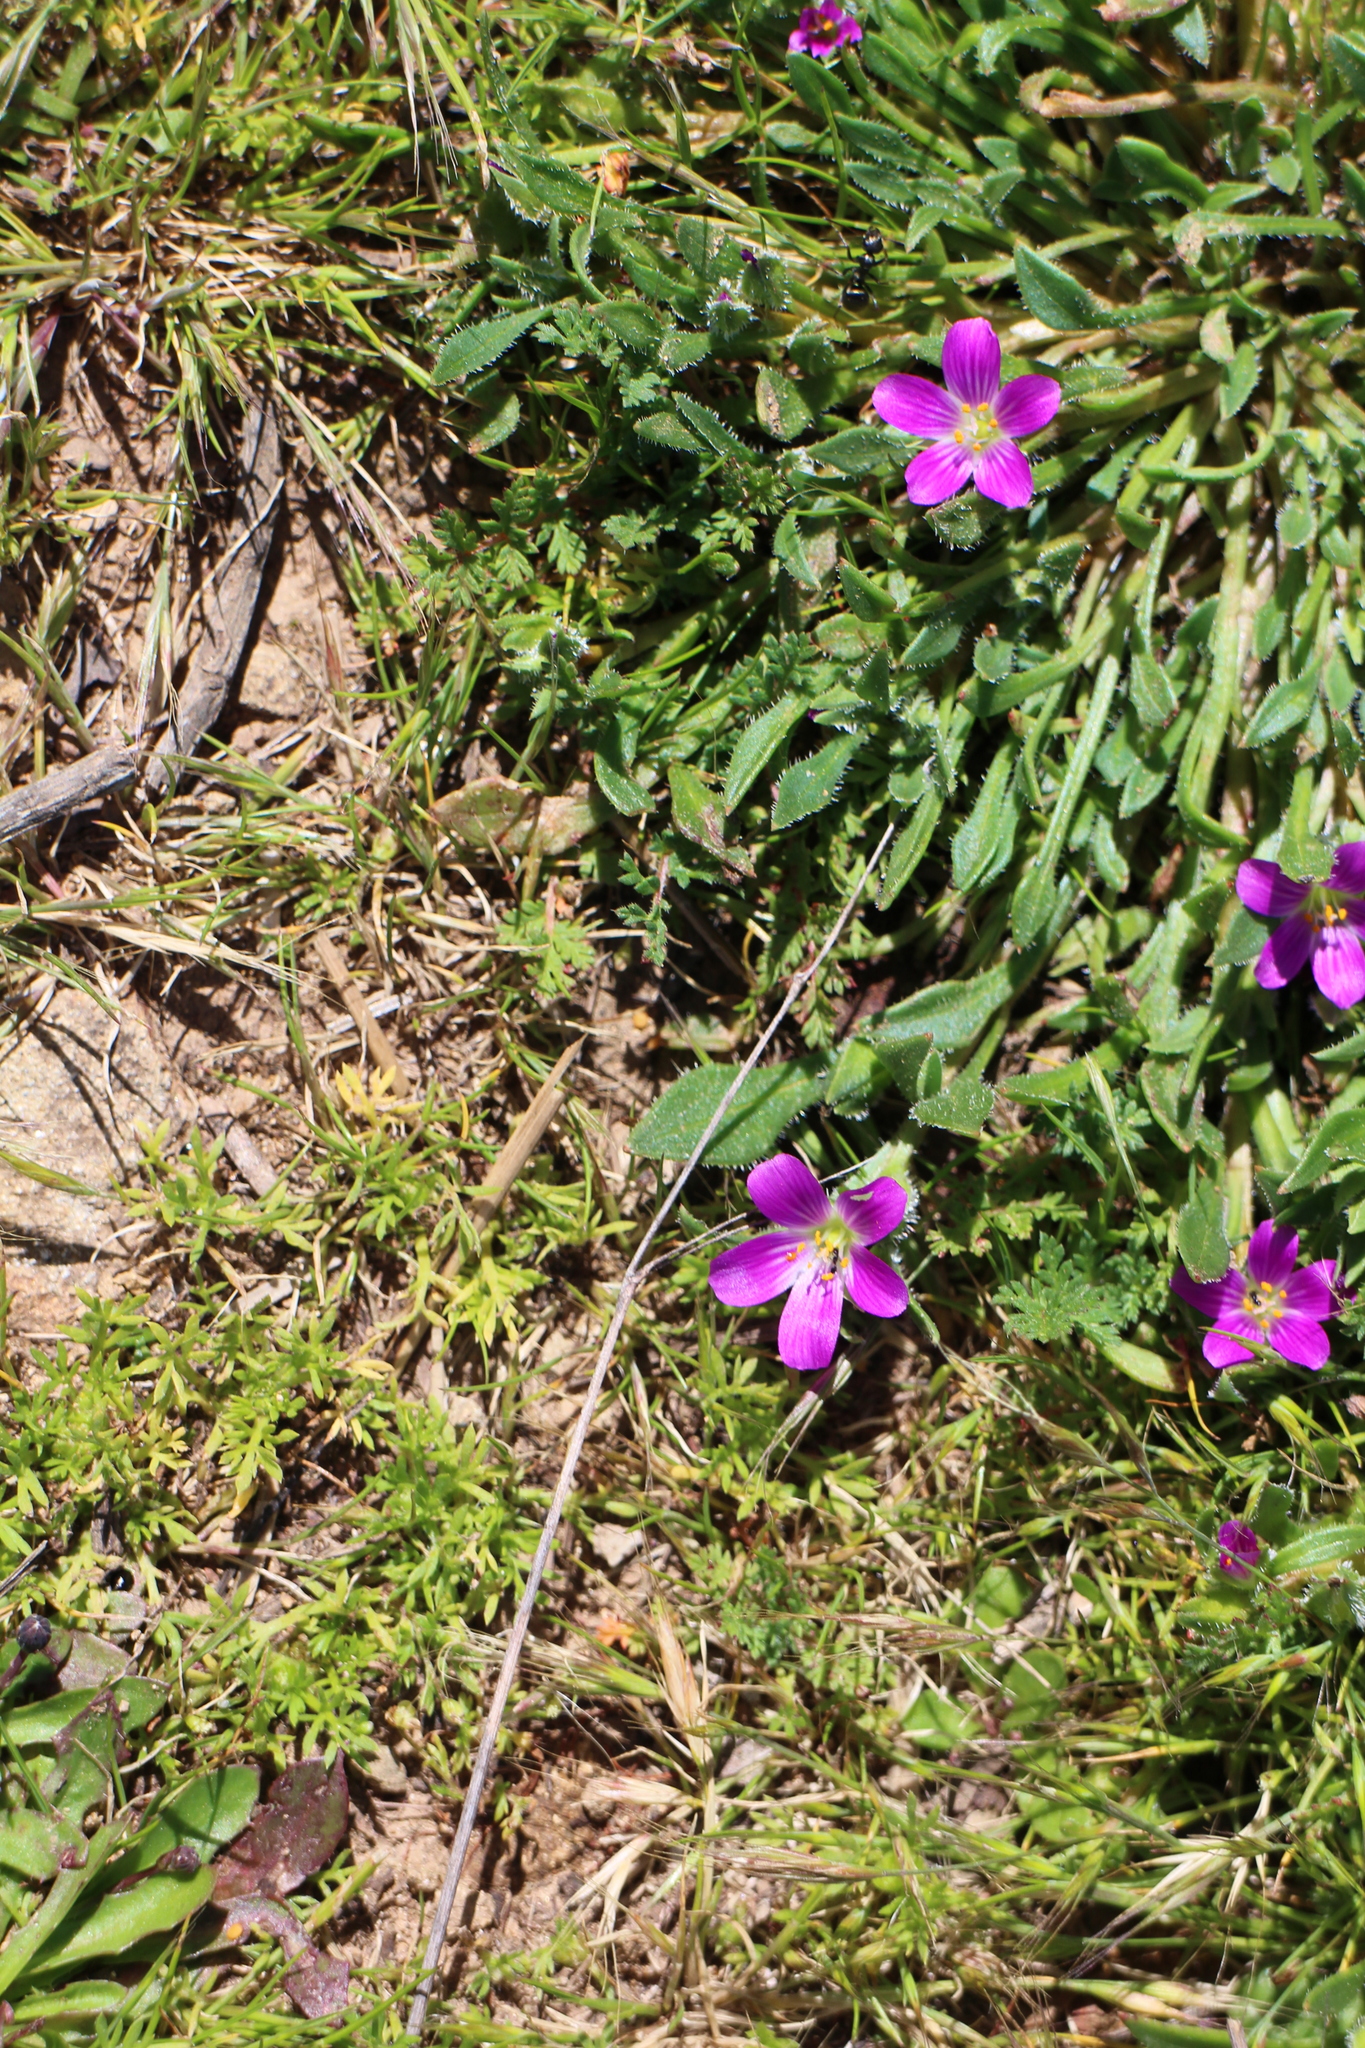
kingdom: Plantae
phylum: Tracheophyta
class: Magnoliopsida
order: Caryophyllales
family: Montiaceae
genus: Calandrinia
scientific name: Calandrinia menziesii
